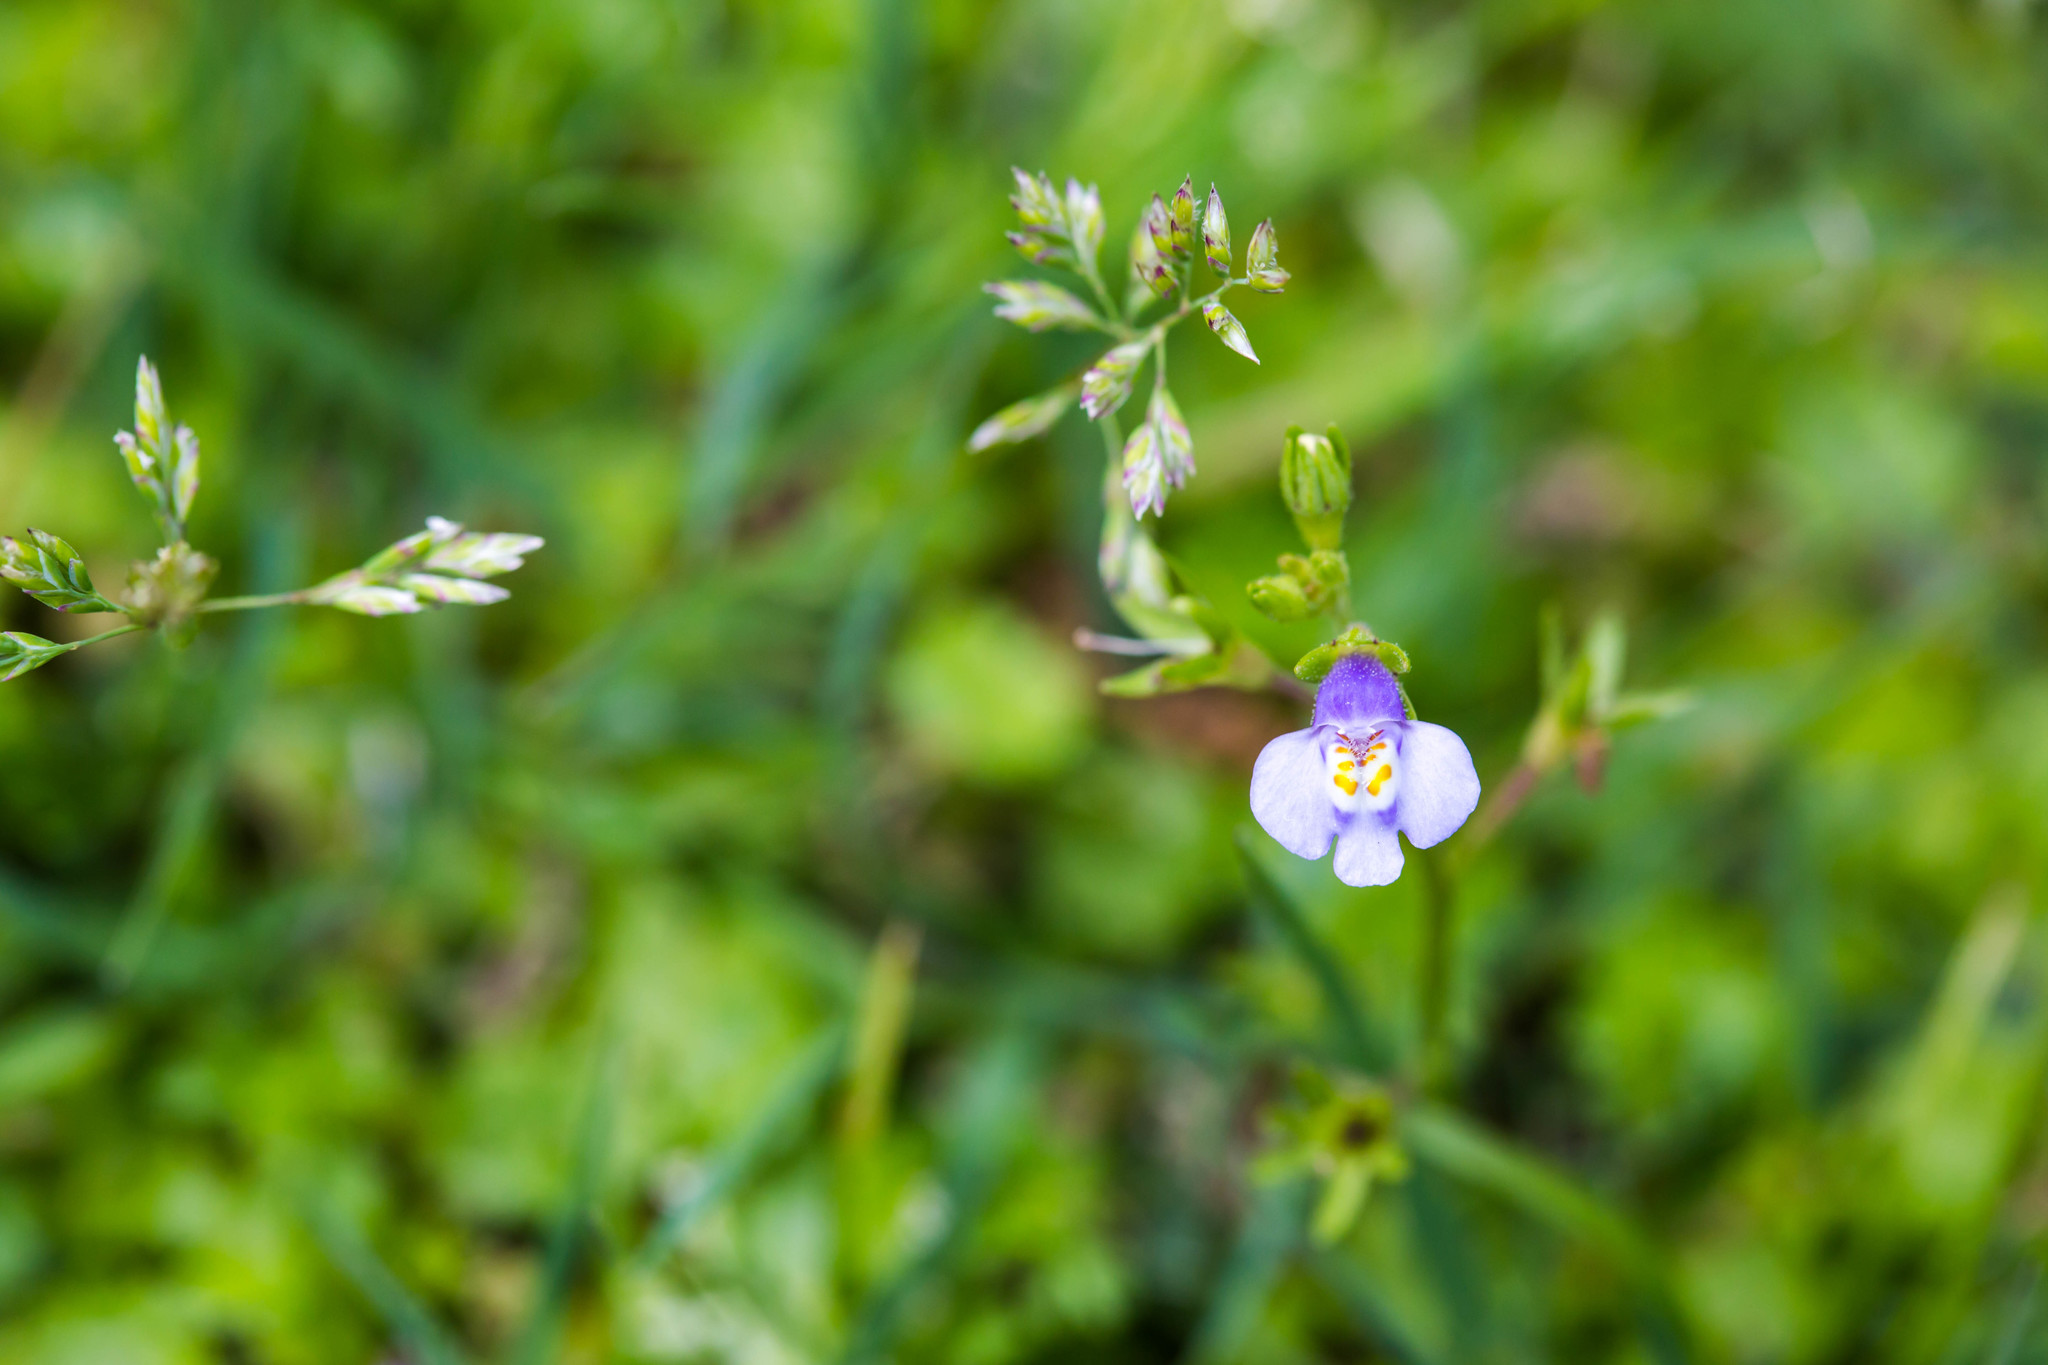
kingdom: Plantae
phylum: Tracheophyta
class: Magnoliopsida
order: Lamiales
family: Mazaceae
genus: Mazus
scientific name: Mazus pumilus
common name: Japanese mazus
